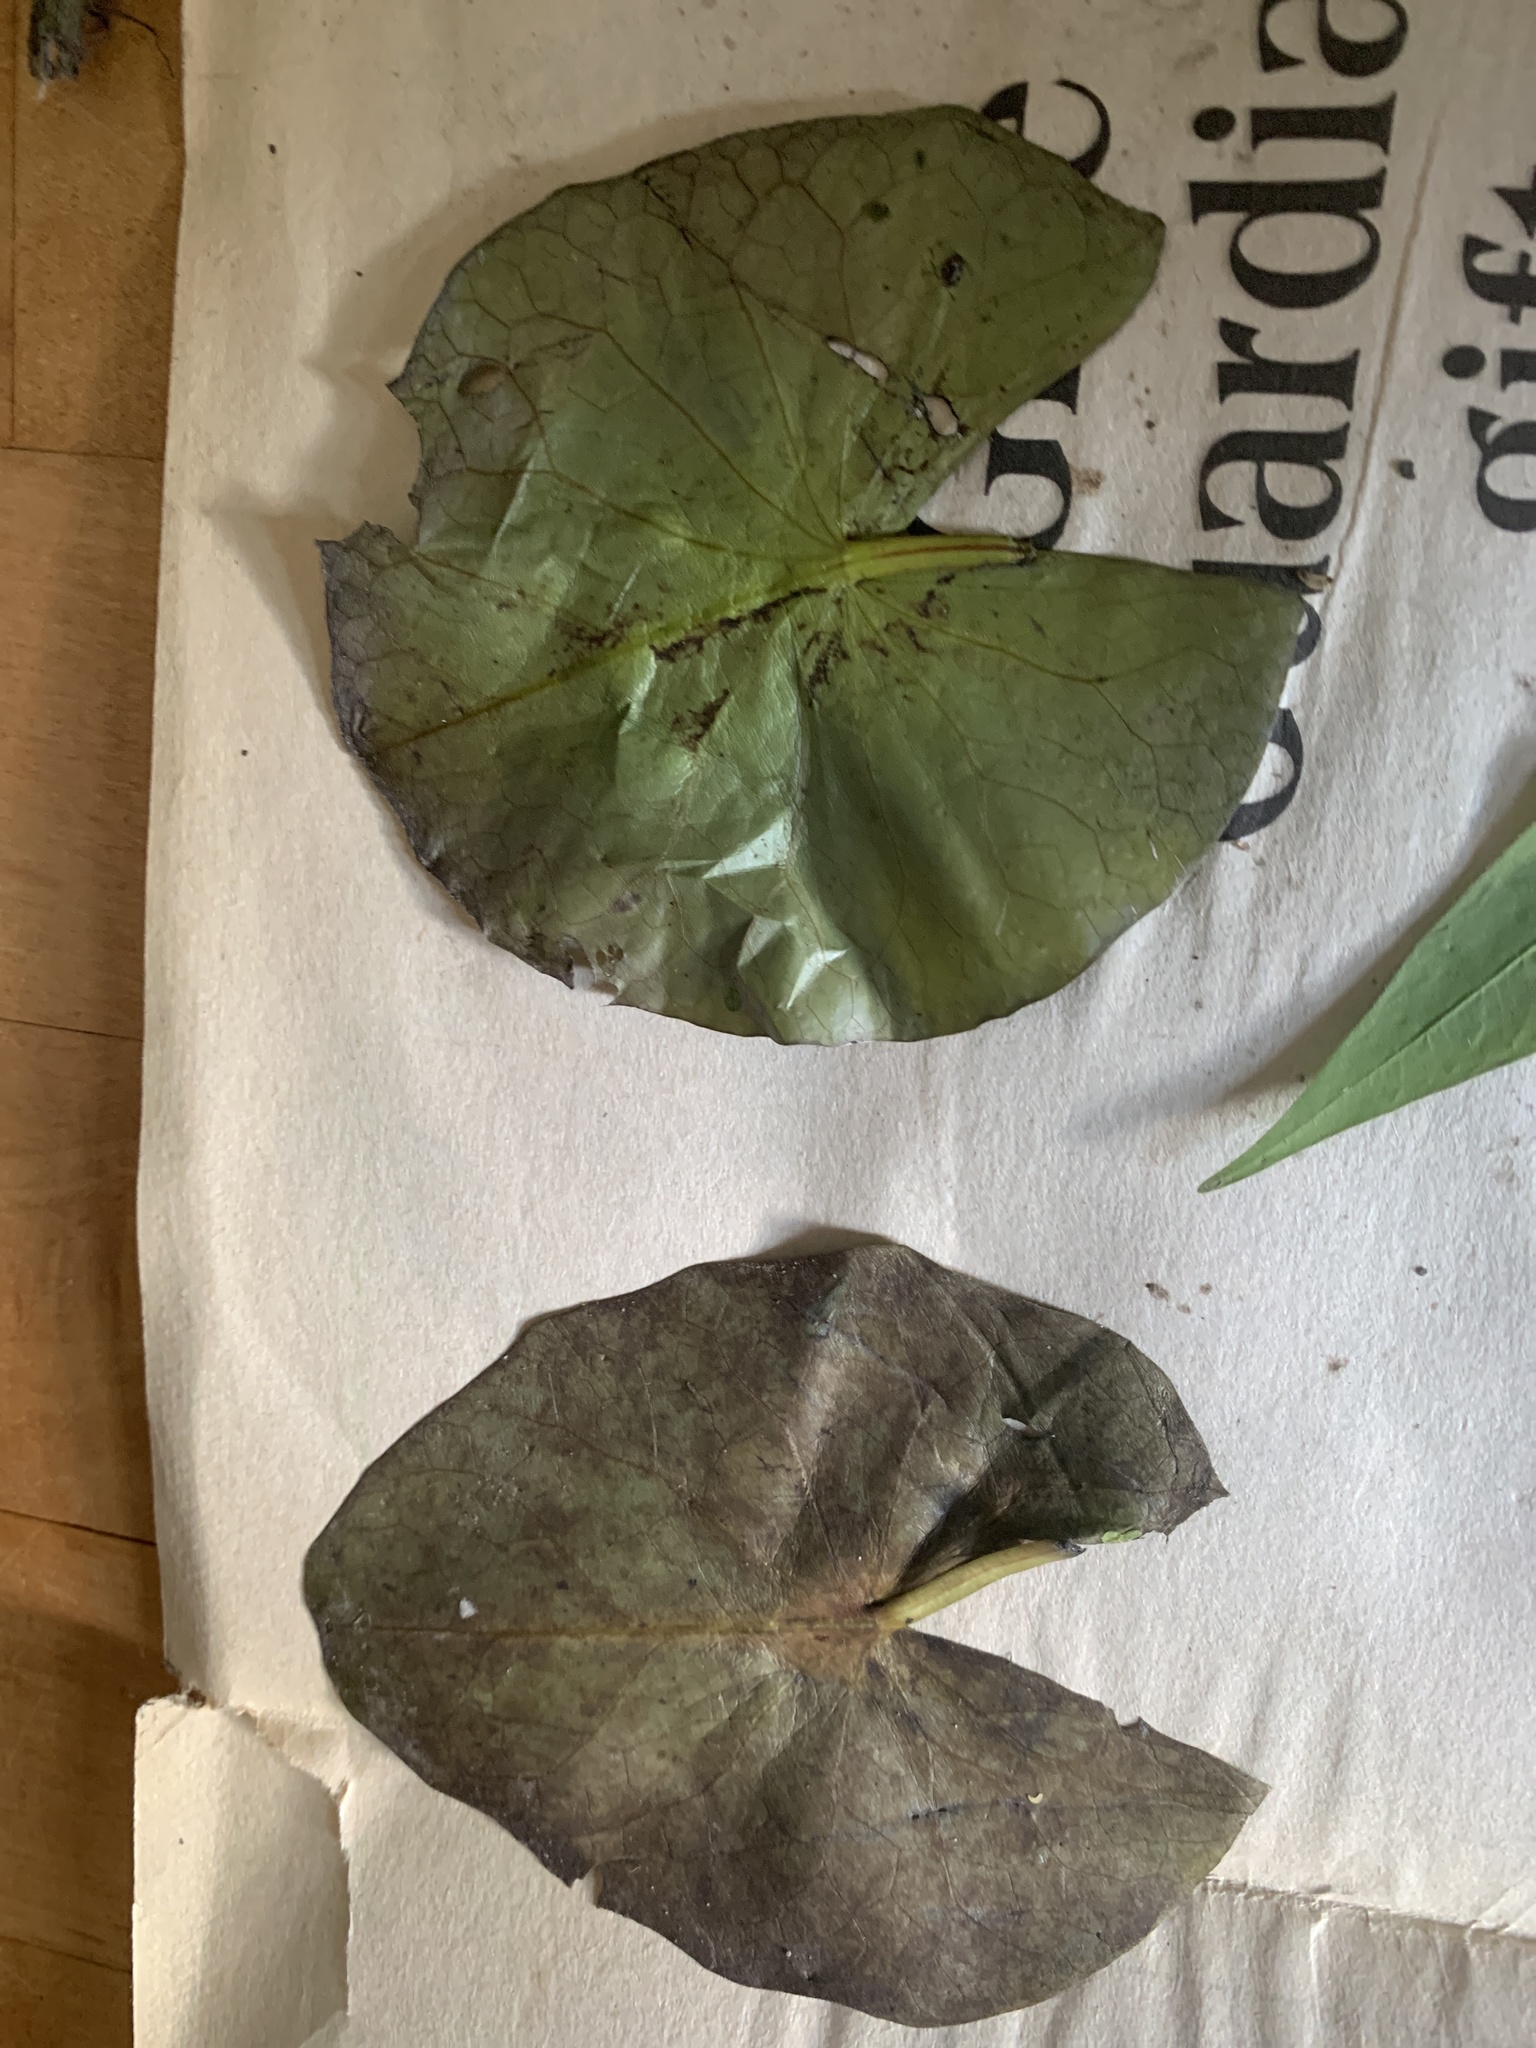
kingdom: Plantae
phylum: Tracheophyta
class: Magnoliopsida
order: Nymphaeales
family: Nymphaeaceae
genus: Nymphaea
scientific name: Nymphaea odorata
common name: Fragrant water-lily
